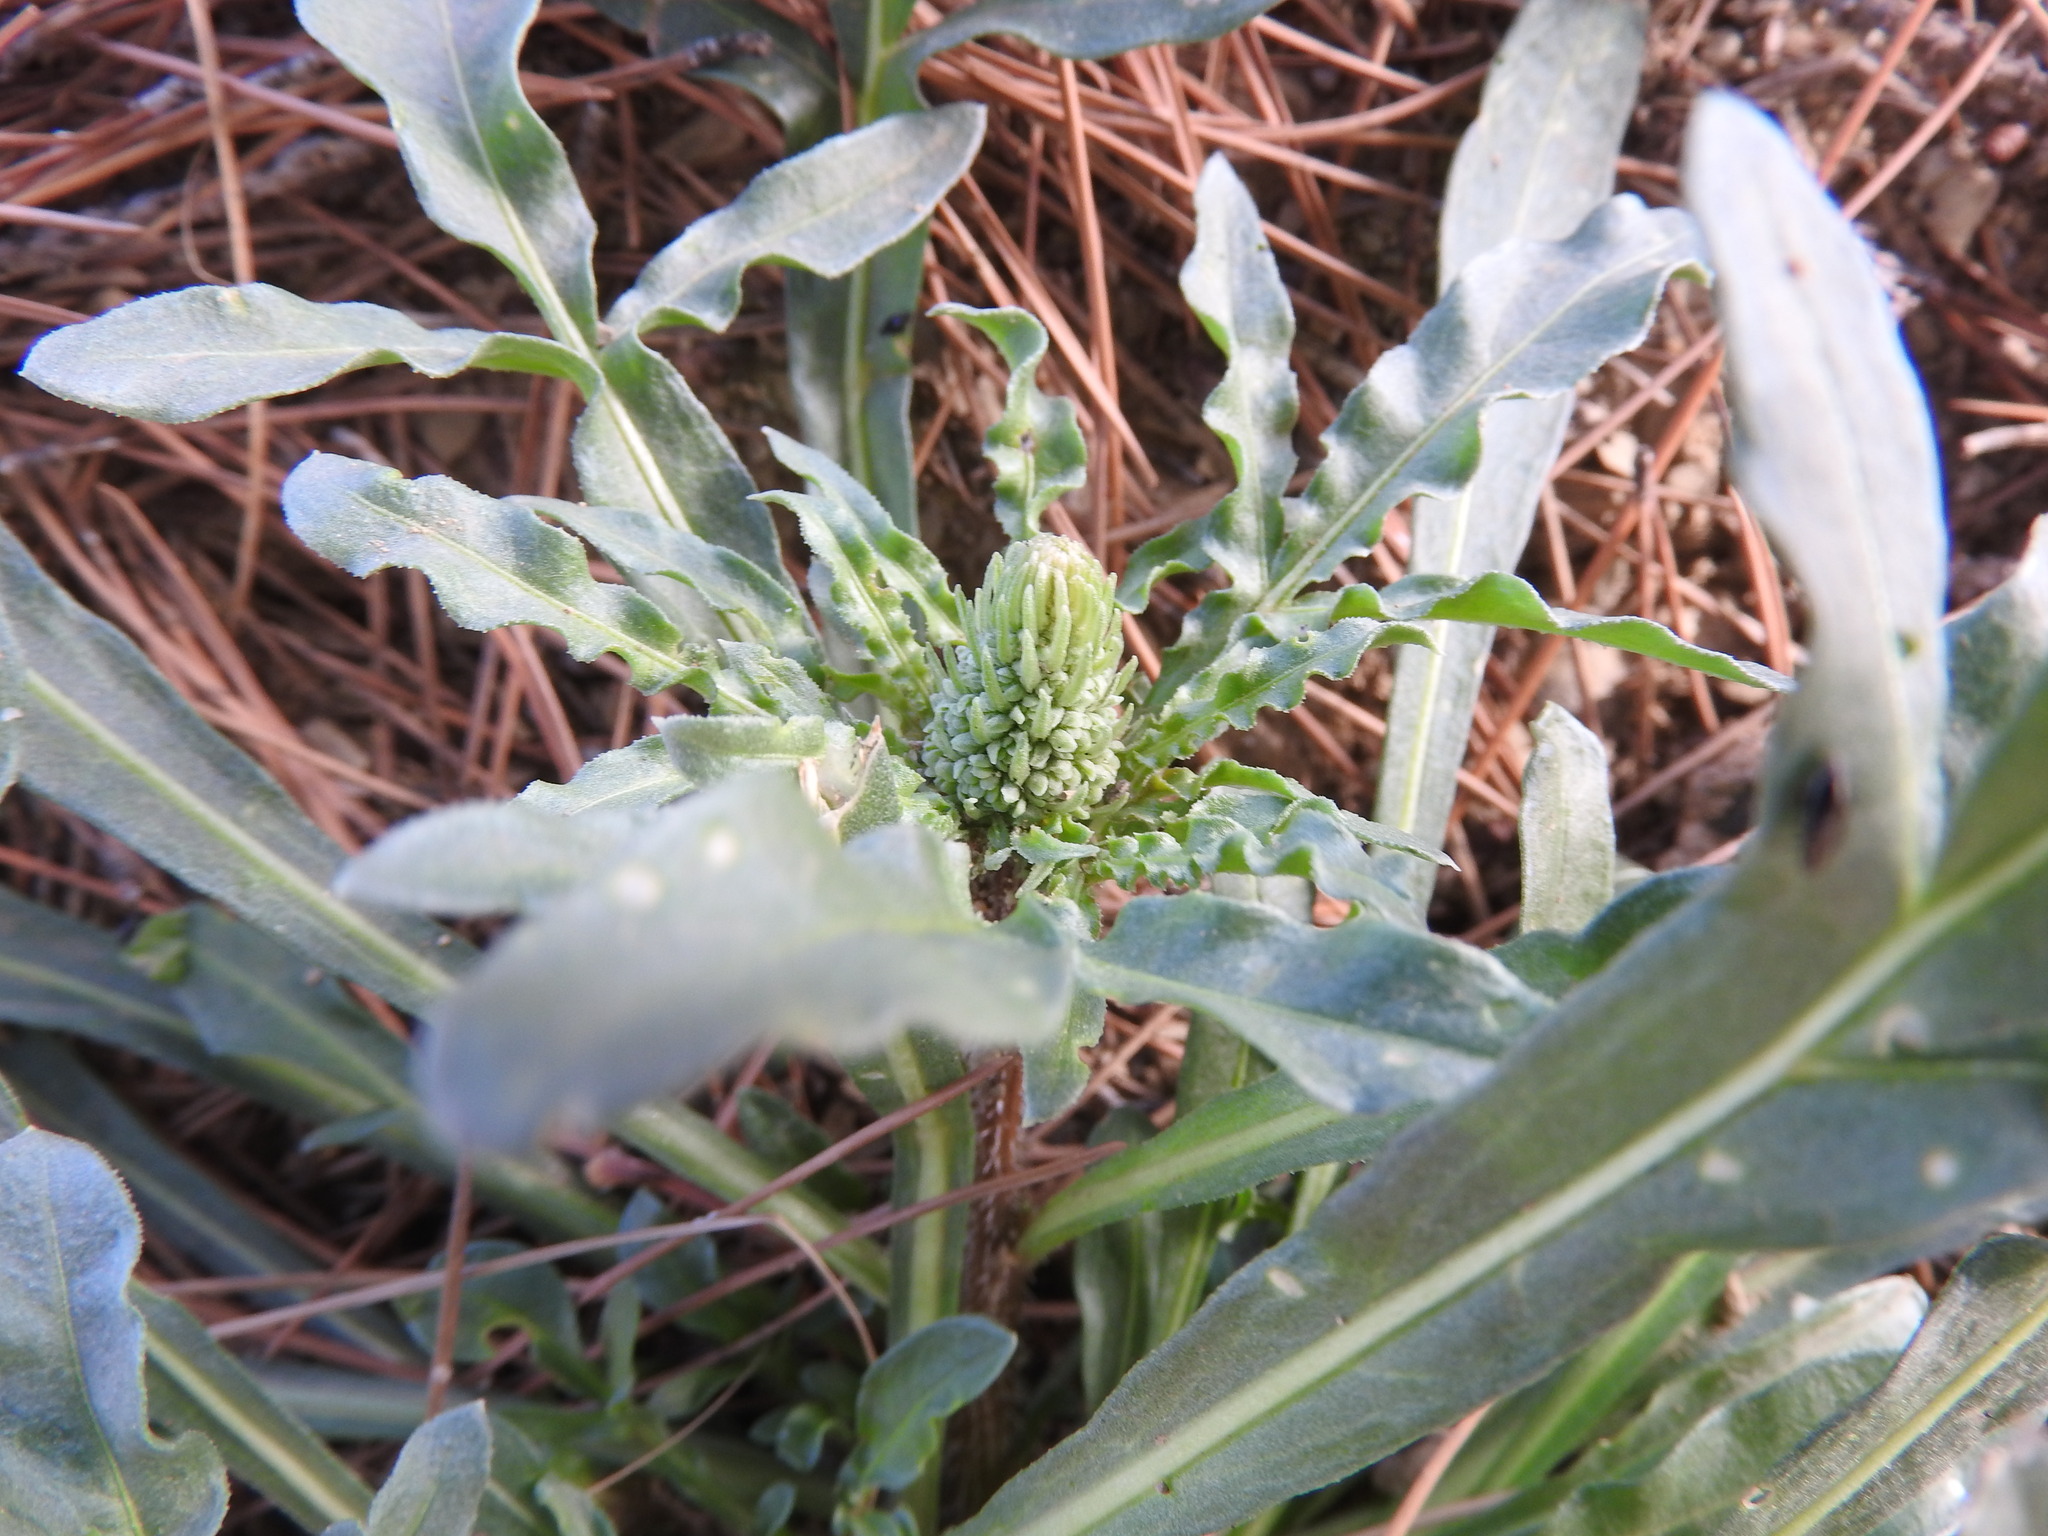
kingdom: Plantae
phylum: Tracheophyta
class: Magnoliopsida
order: Brassicales
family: Resedaceae
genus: Reseda
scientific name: Reseda alba
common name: White mignonette
